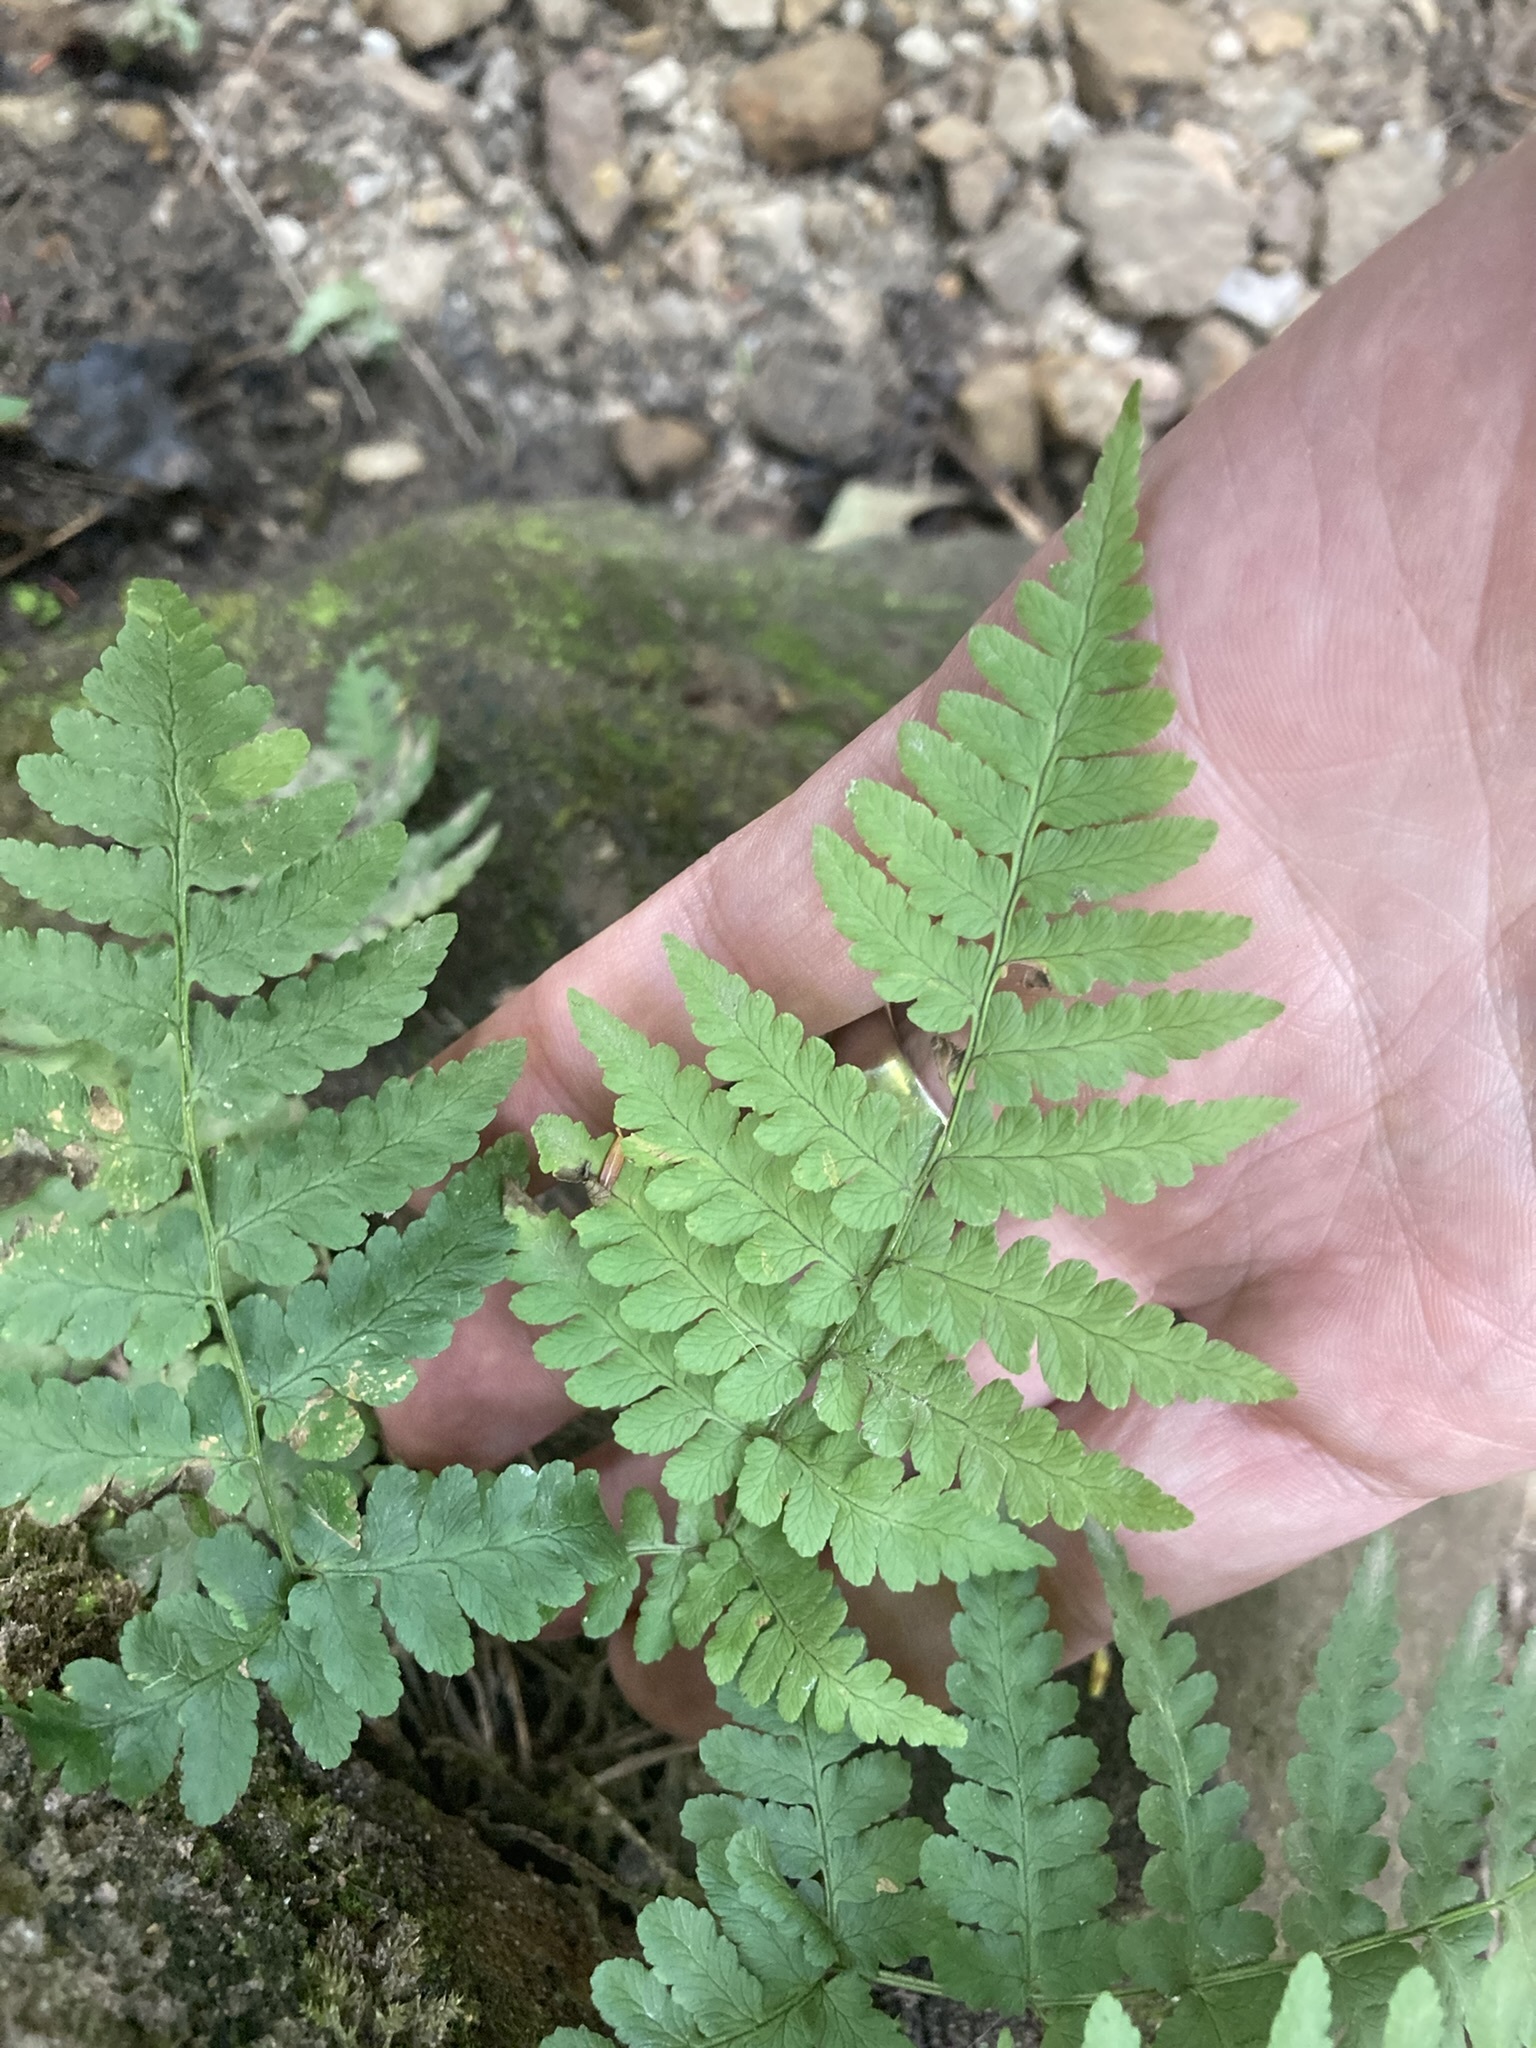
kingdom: Plantae
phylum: Tracheophyta
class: Polypodiopsida
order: Polypodiales
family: Dryopteridaceae
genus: Dryopteris
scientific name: Dryopteris marginalis
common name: Marginal wood fern
